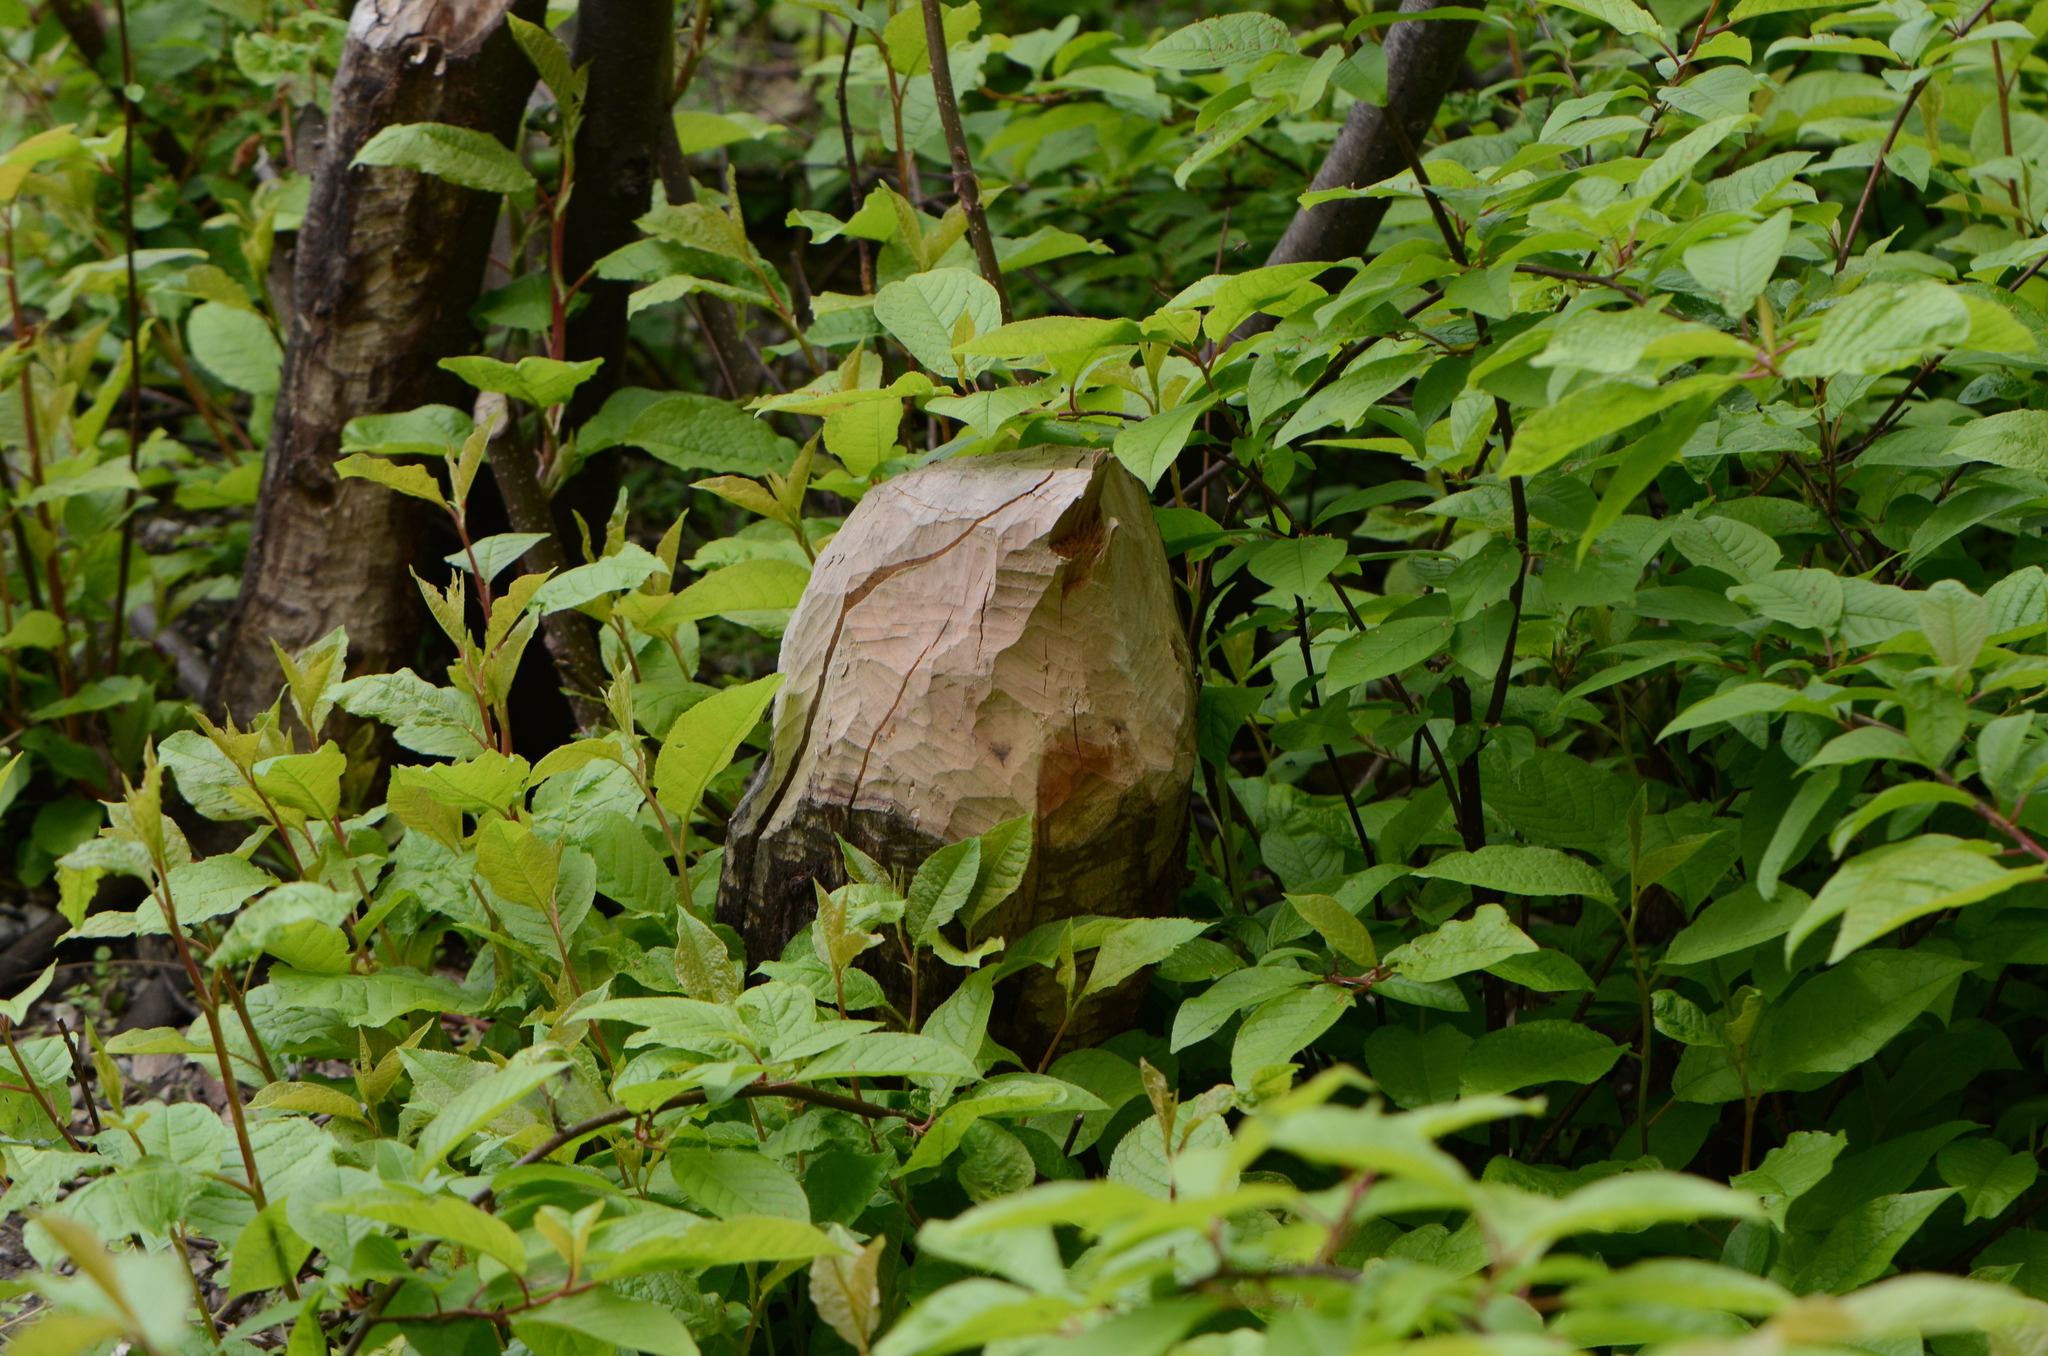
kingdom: Animalia
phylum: Chordata
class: Mammalia
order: Rodentia
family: Castoridae
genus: Castor
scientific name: Castor fiber
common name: Eurasian beaver
